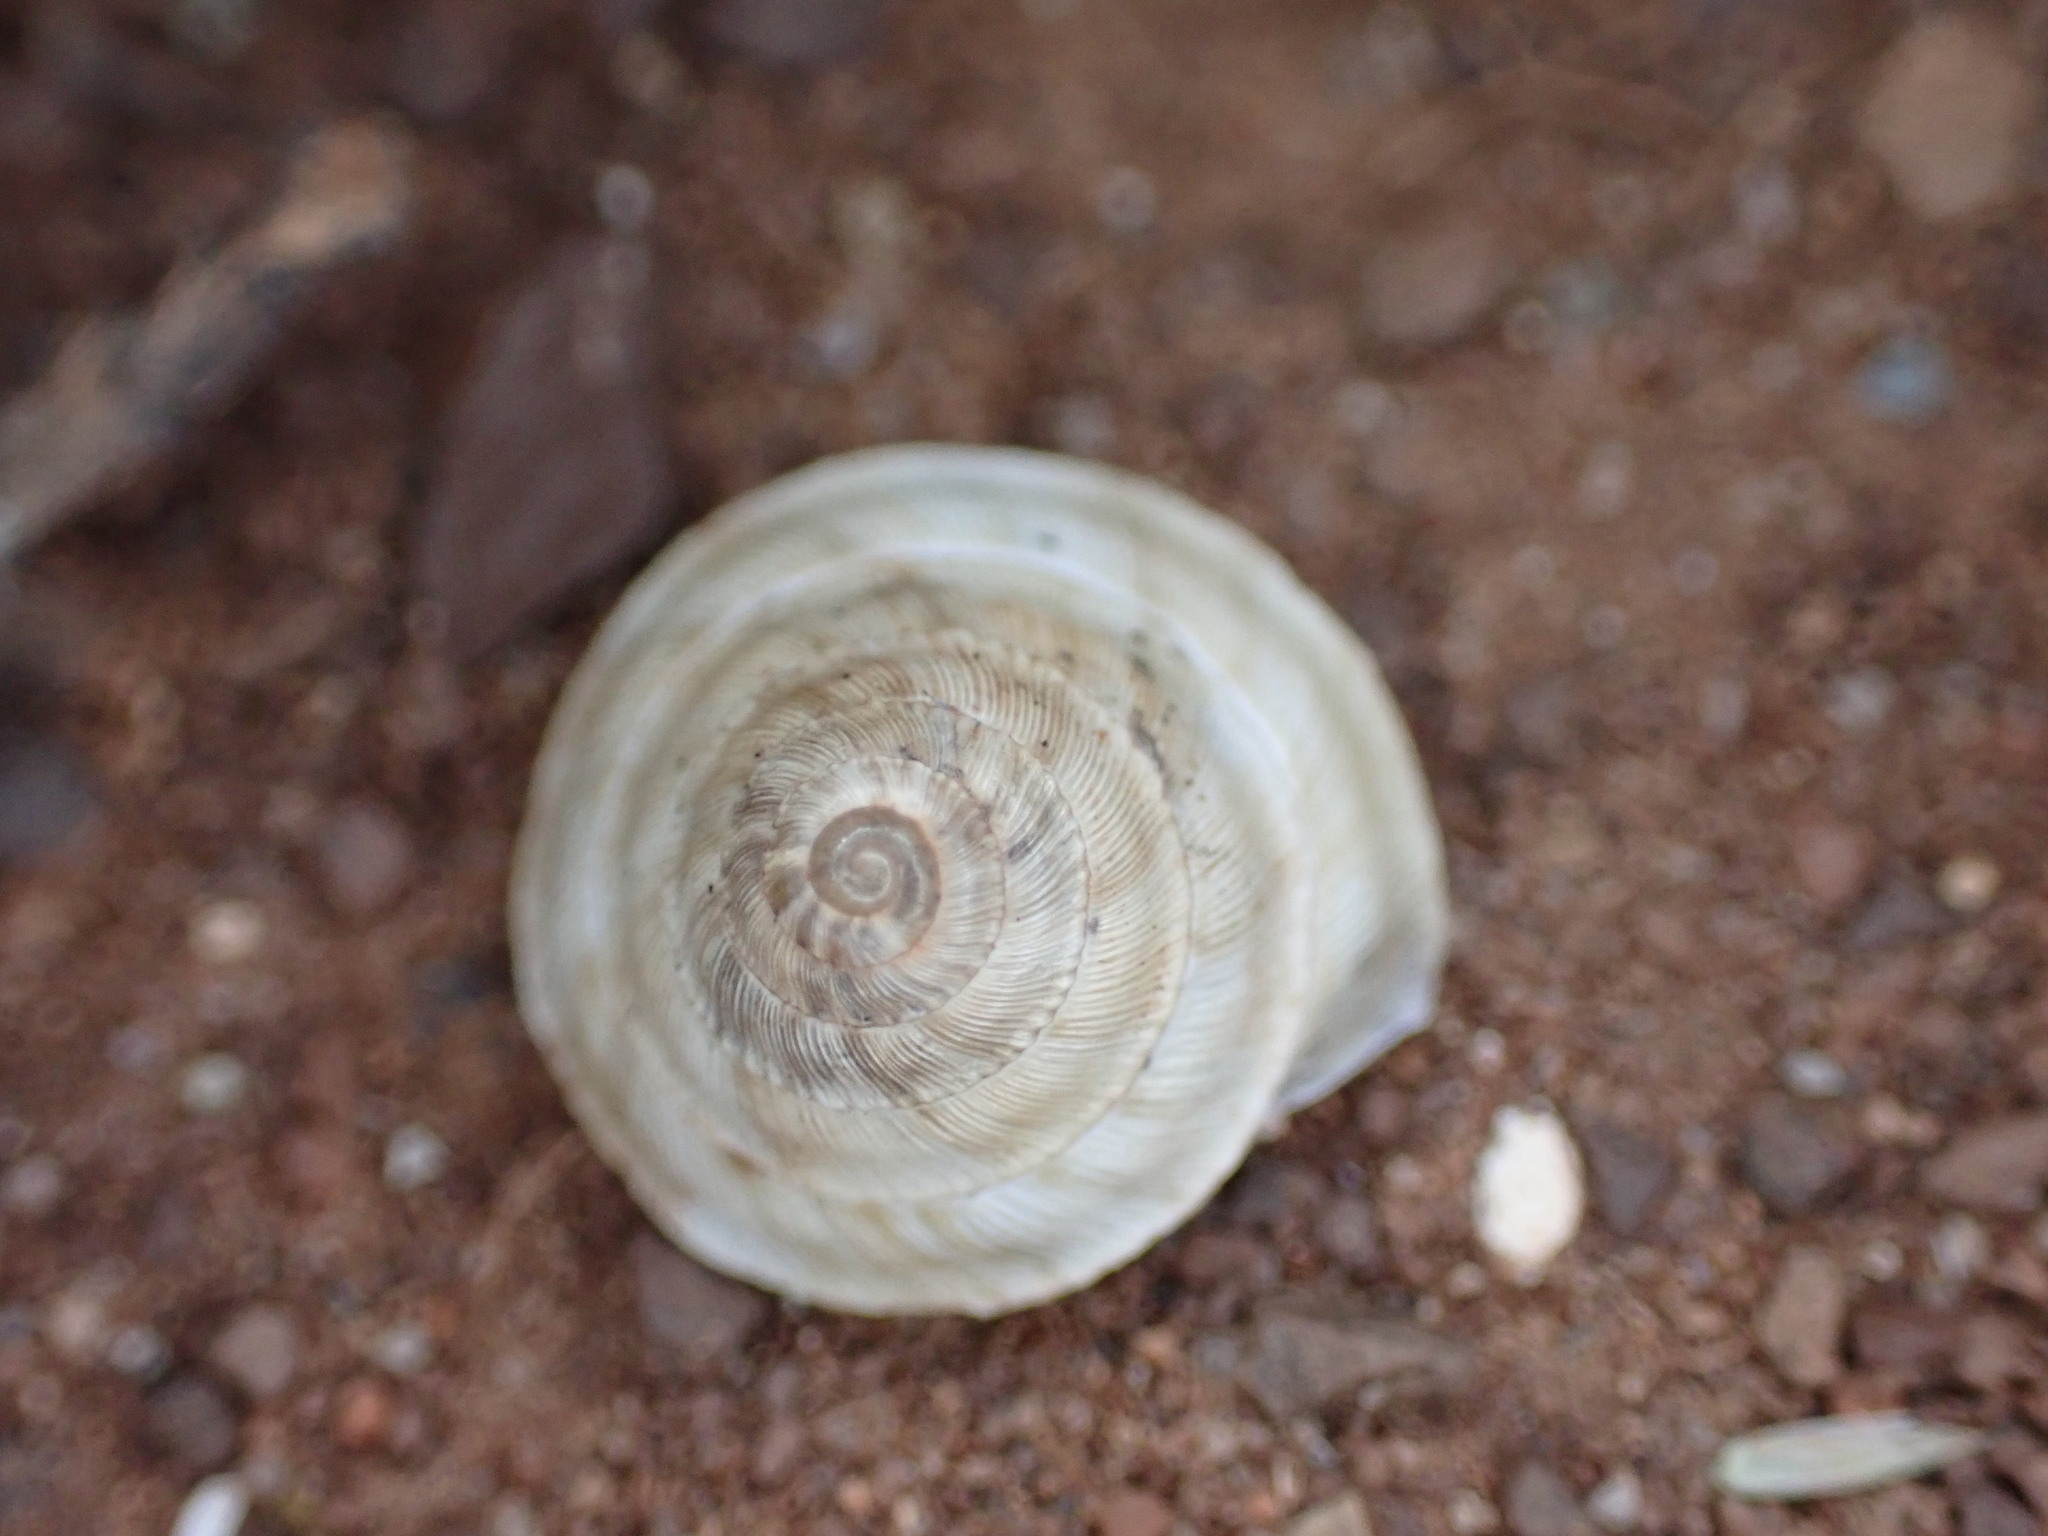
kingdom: Animalia
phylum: Mollusca
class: Gastropoda
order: Stylommatophora
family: Geomitridae
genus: Trochoidea
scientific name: Trochoidea elegans
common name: Elegant helicellid
